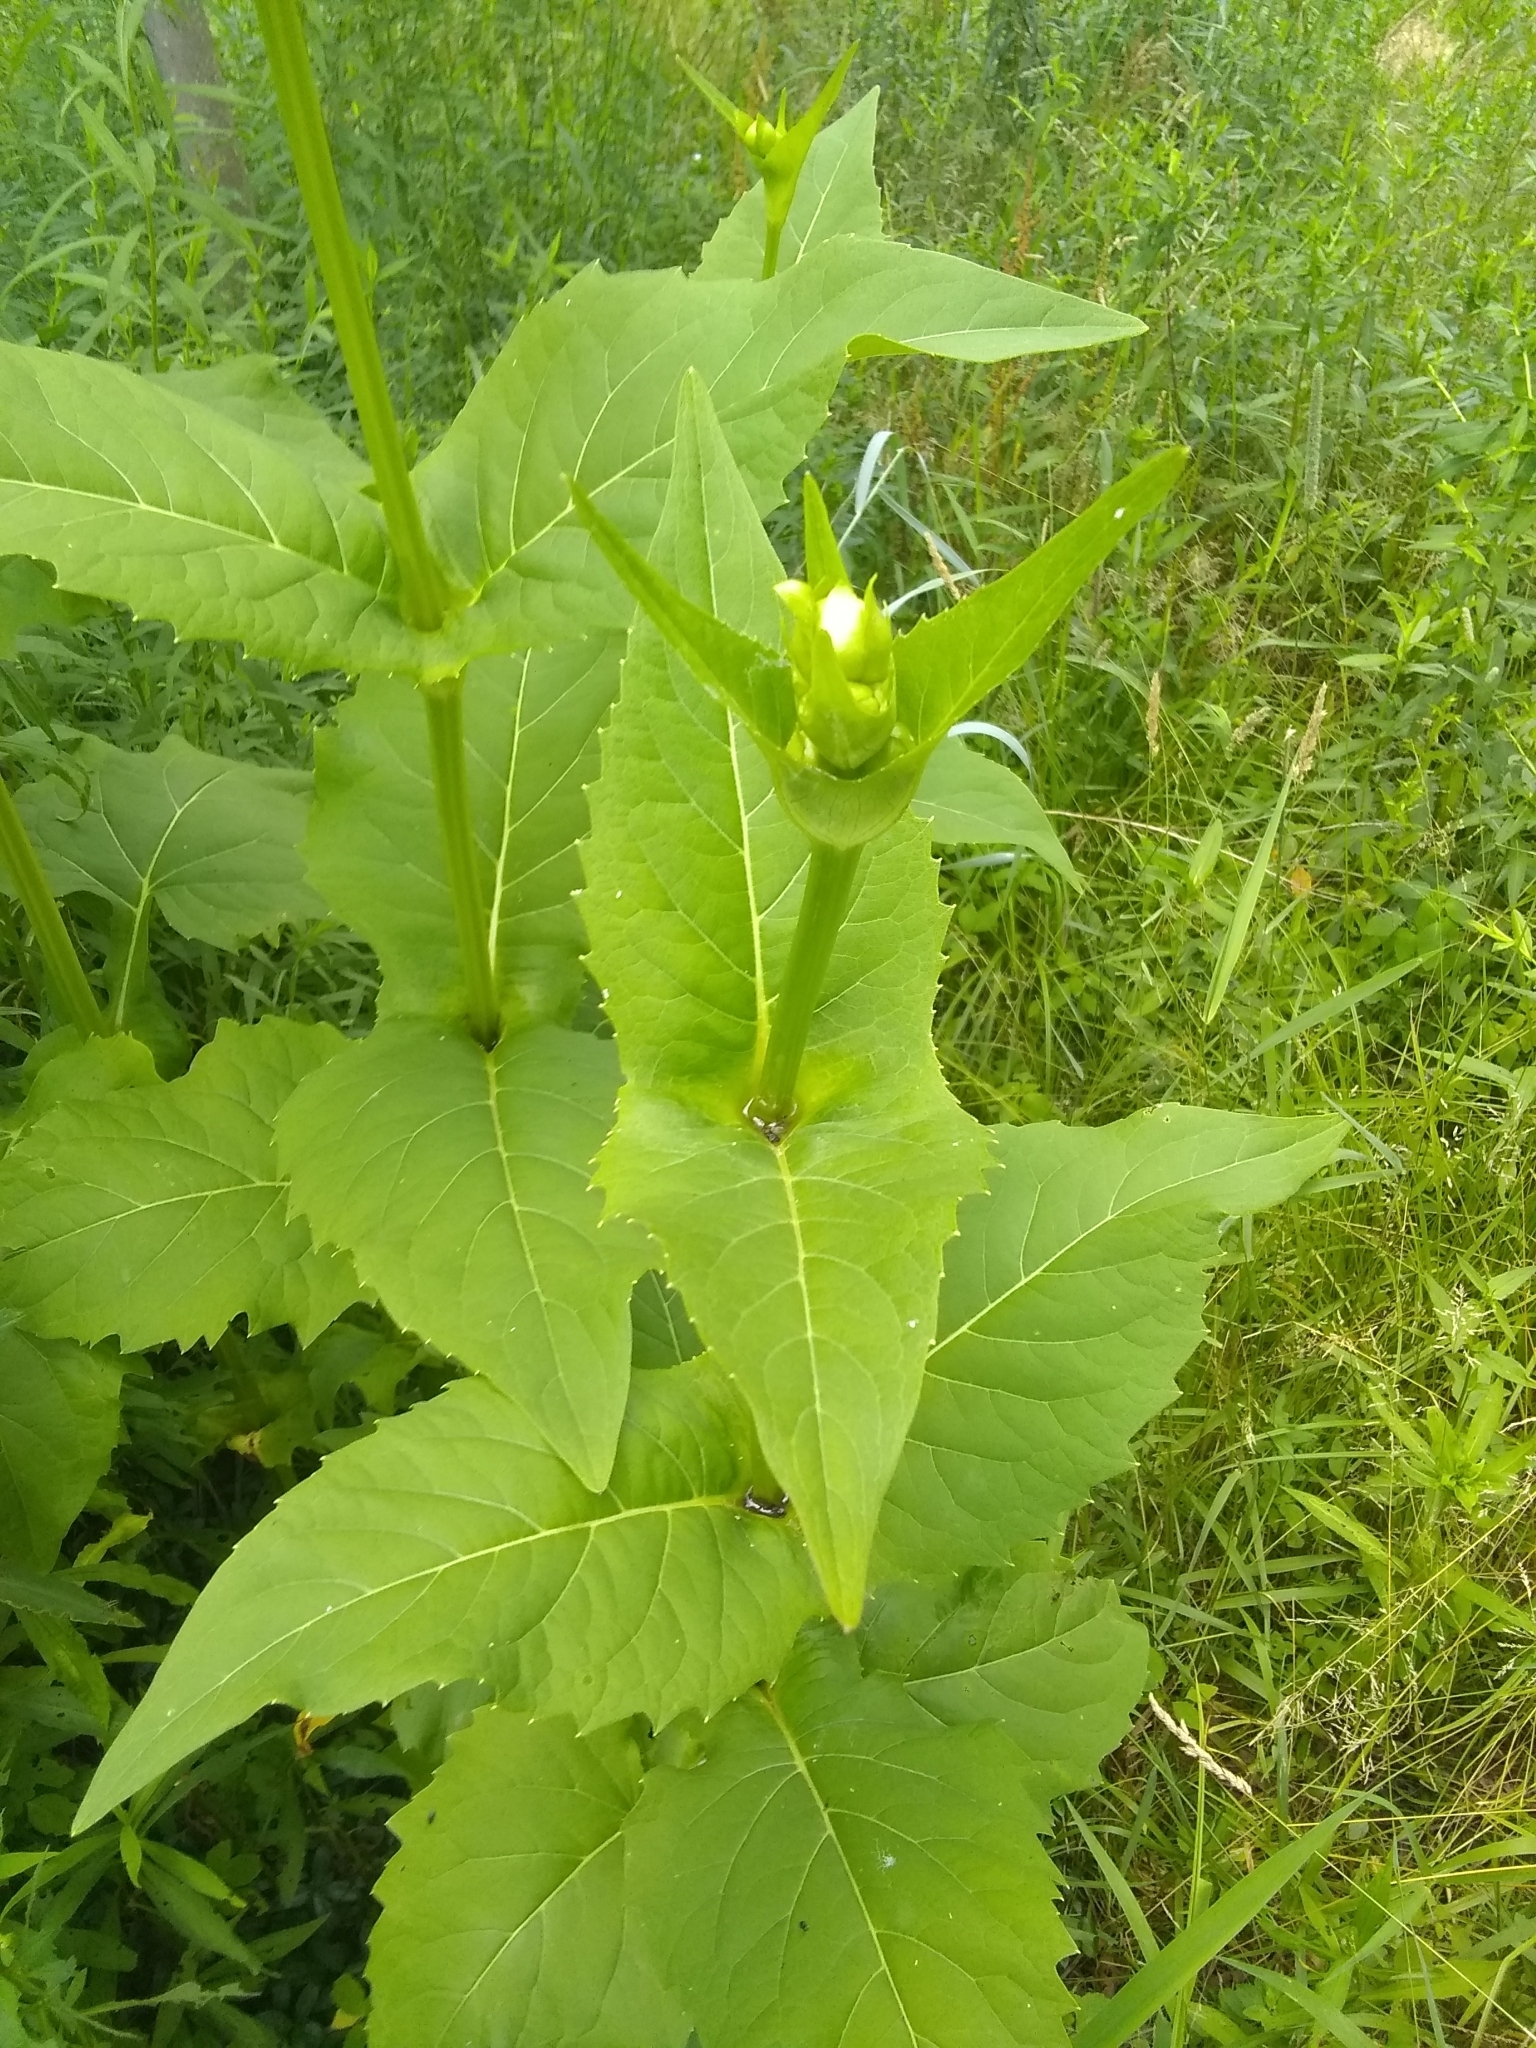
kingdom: Plantae
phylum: Tracheophyta
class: Magnoliopsida
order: Asterales
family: Asteraceae
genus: Silphium
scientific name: Silphium perfoliatum
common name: Cup-plant
